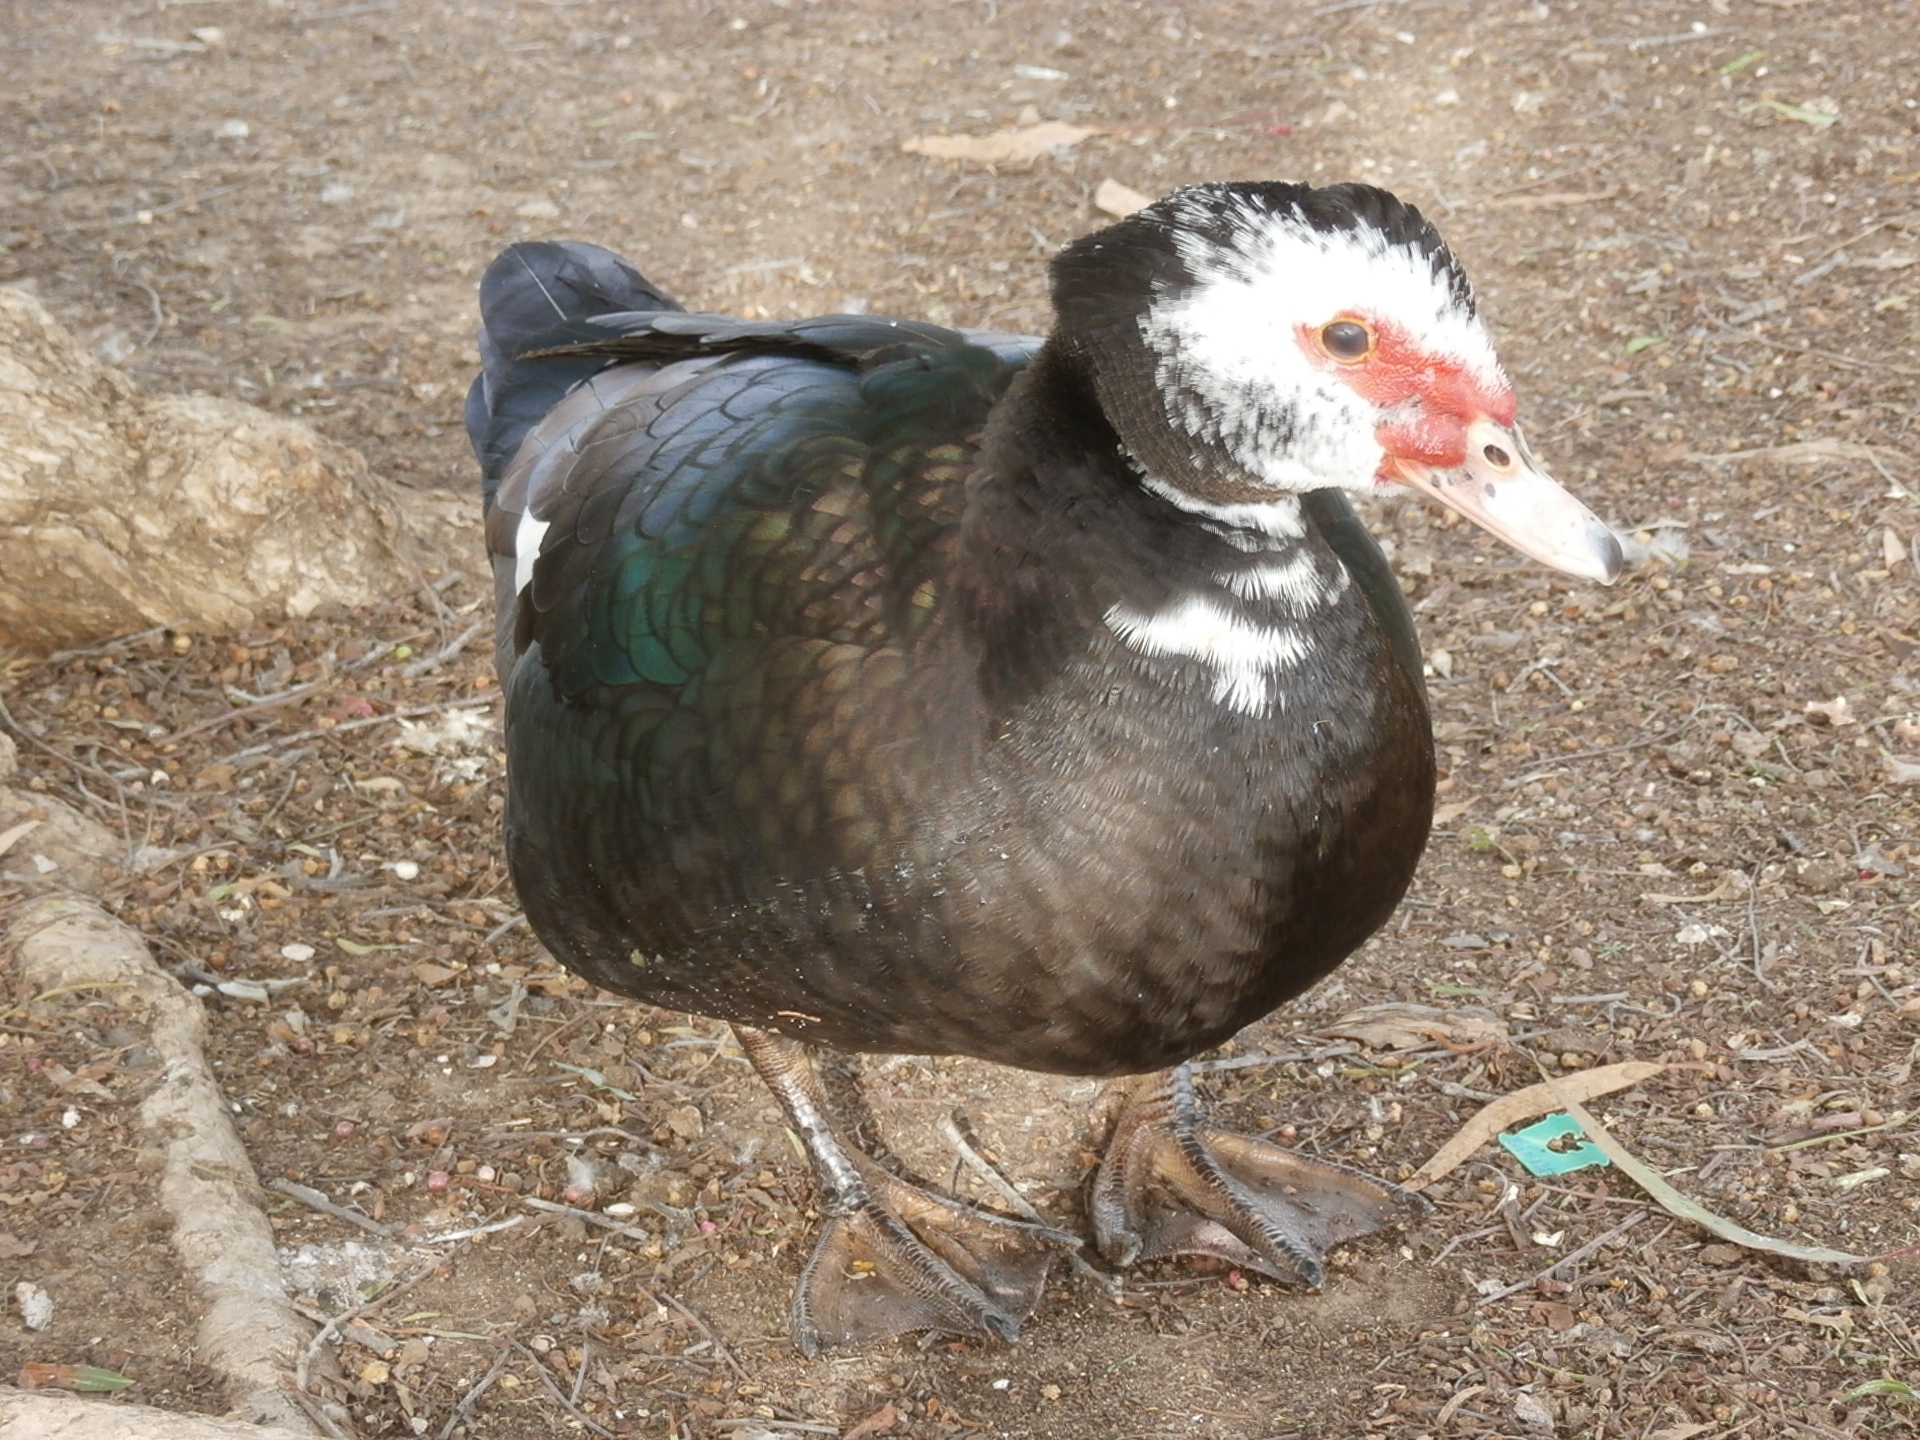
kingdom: Animalia
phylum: Chordata
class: Aves
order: Anseriformes
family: Anatidae
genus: Cairina
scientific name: Cairina moschata
